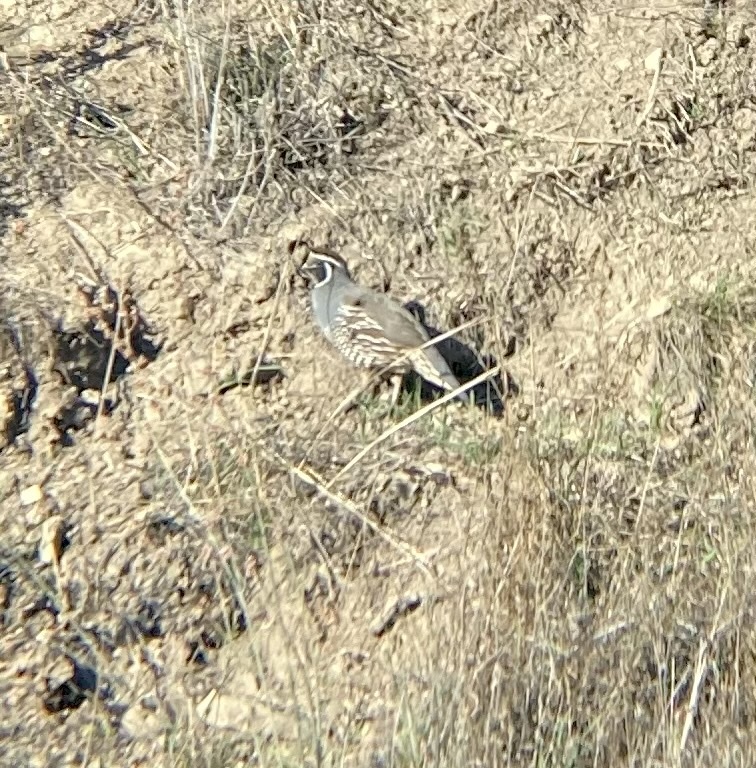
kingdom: Animalia
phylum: Chordata
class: Aves
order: Galliformes
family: Odontophoridae
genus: Callipepla
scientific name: Callipepla californica
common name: California quail
